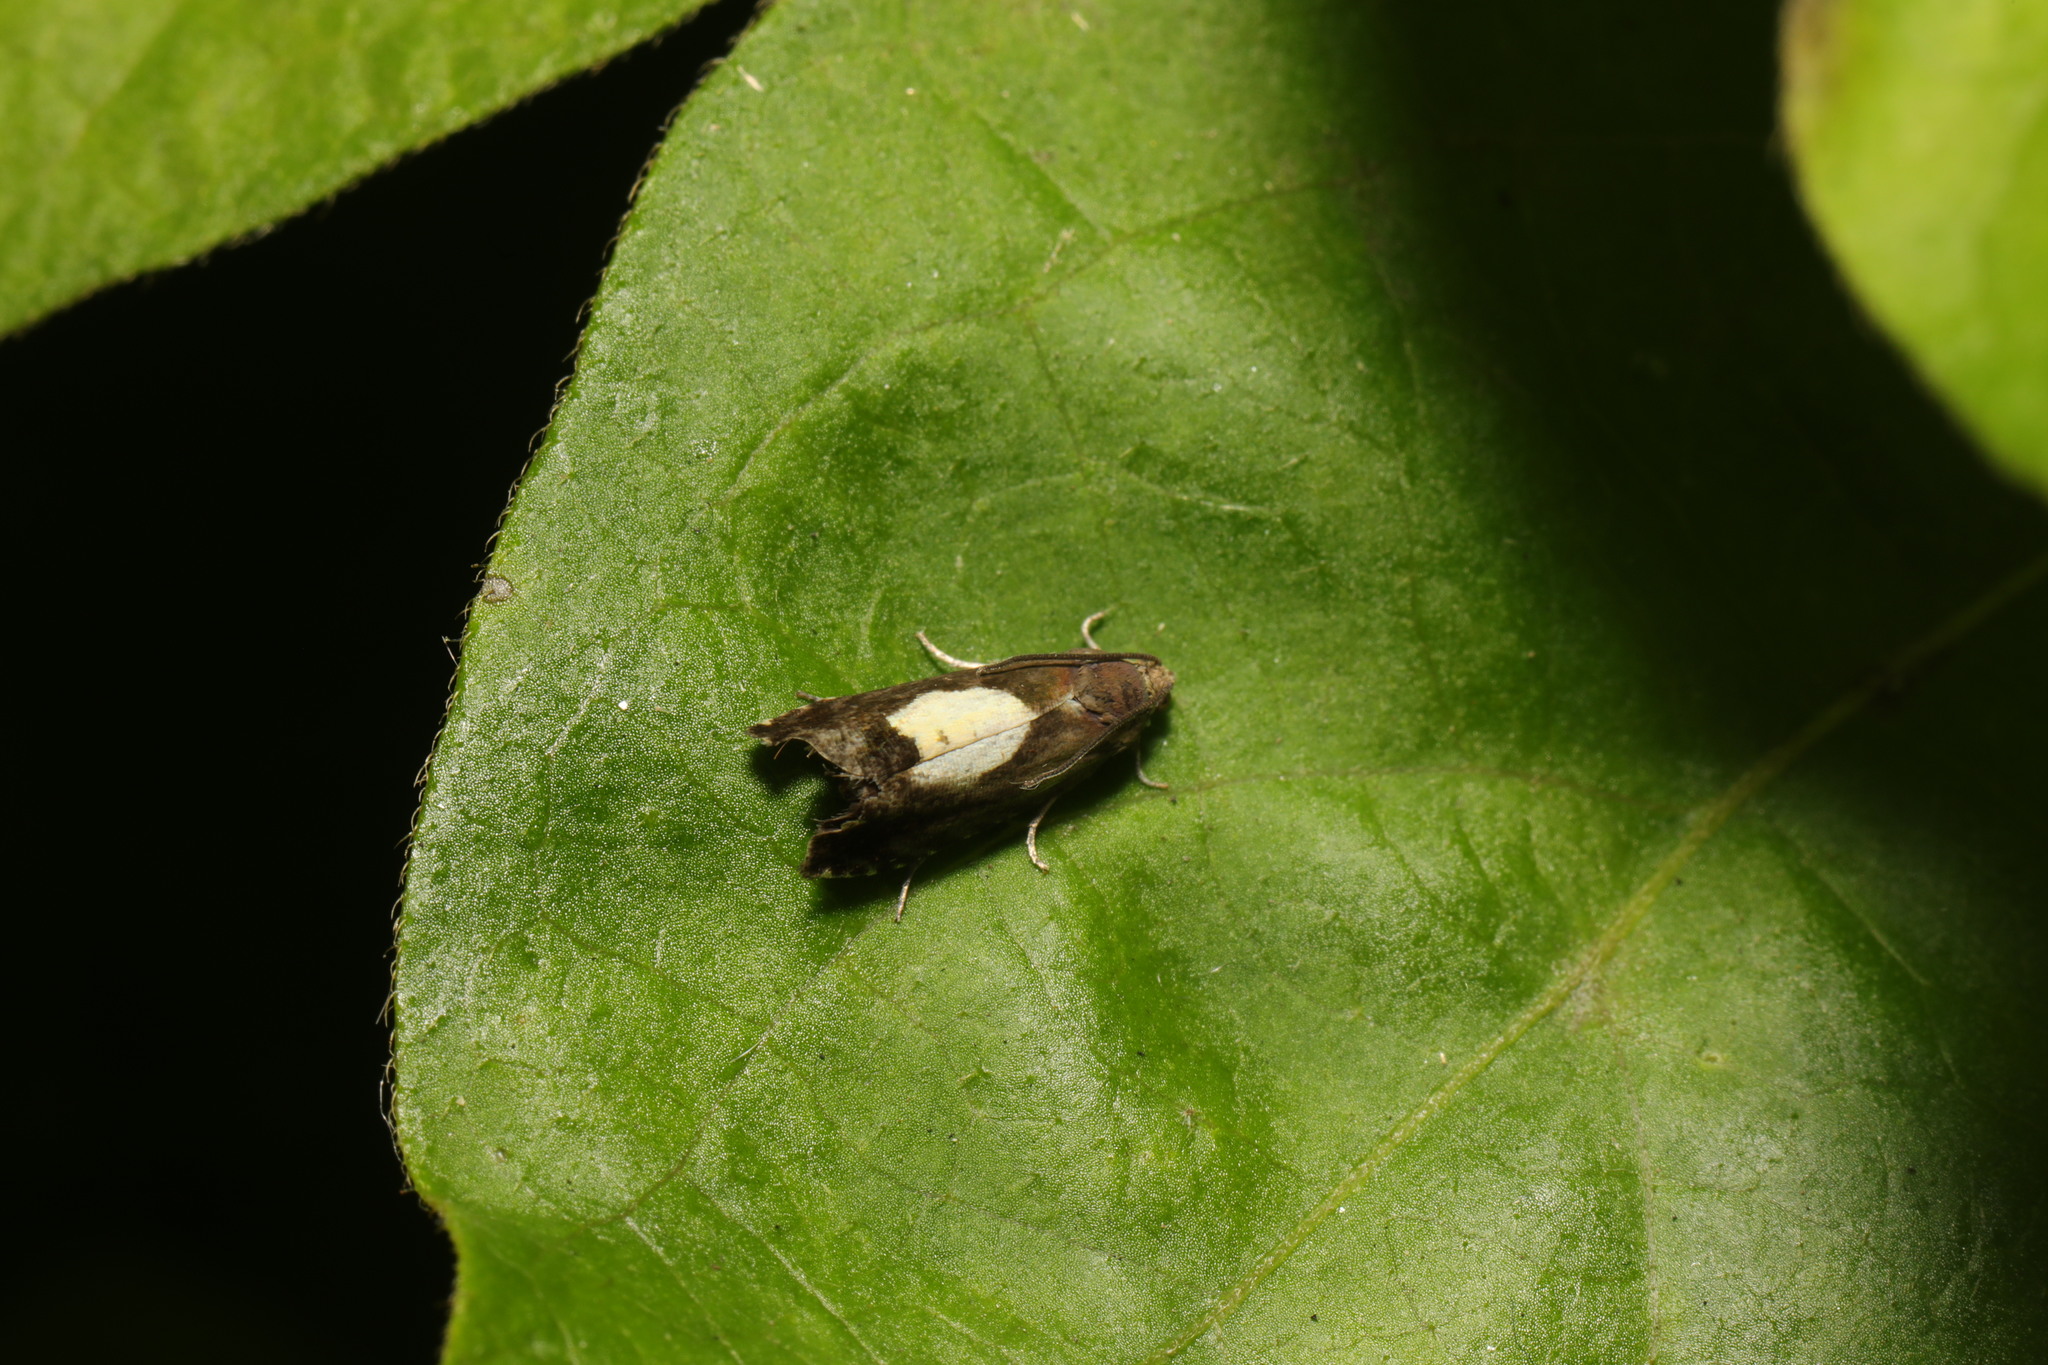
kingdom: Animalia
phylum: Arthropoda
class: Insecta
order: Lepidoptera
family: Tortricidae
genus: Pammene
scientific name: Pammene regiana
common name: Regal piercer
